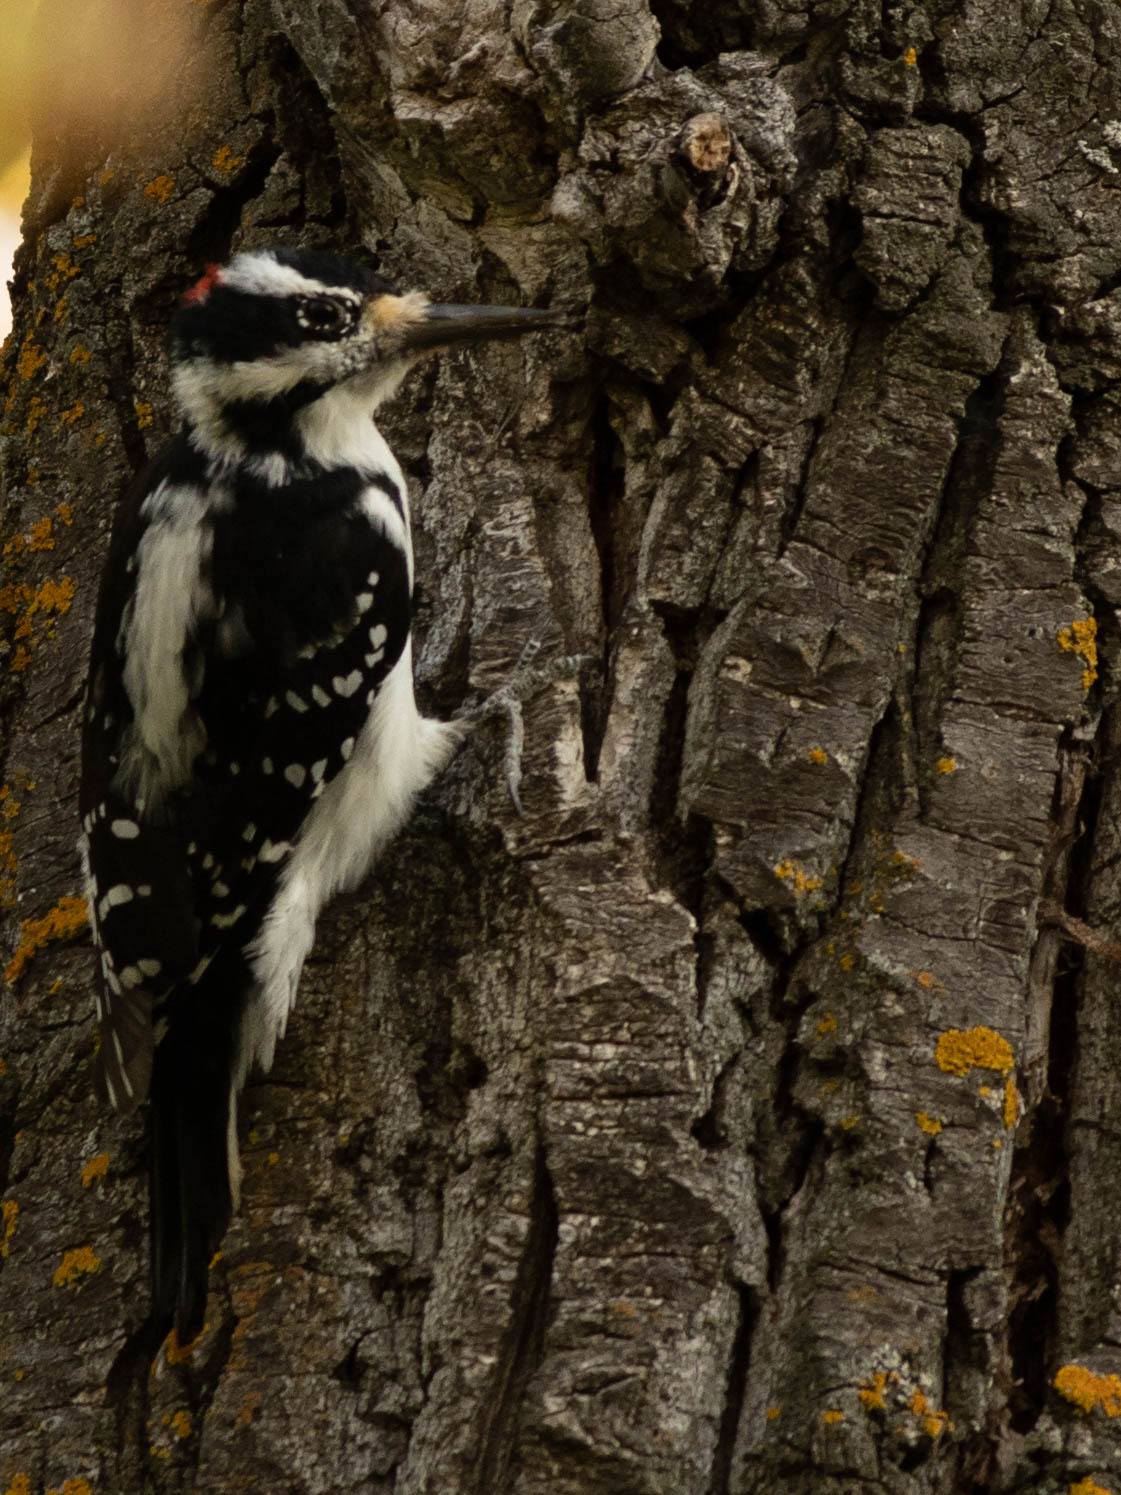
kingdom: Animalia
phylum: Chordata
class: Aves
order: Piciformes
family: Picidae
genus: Leuconotopicus
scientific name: Leuconotopicus villosus
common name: Hairy woodpecker
